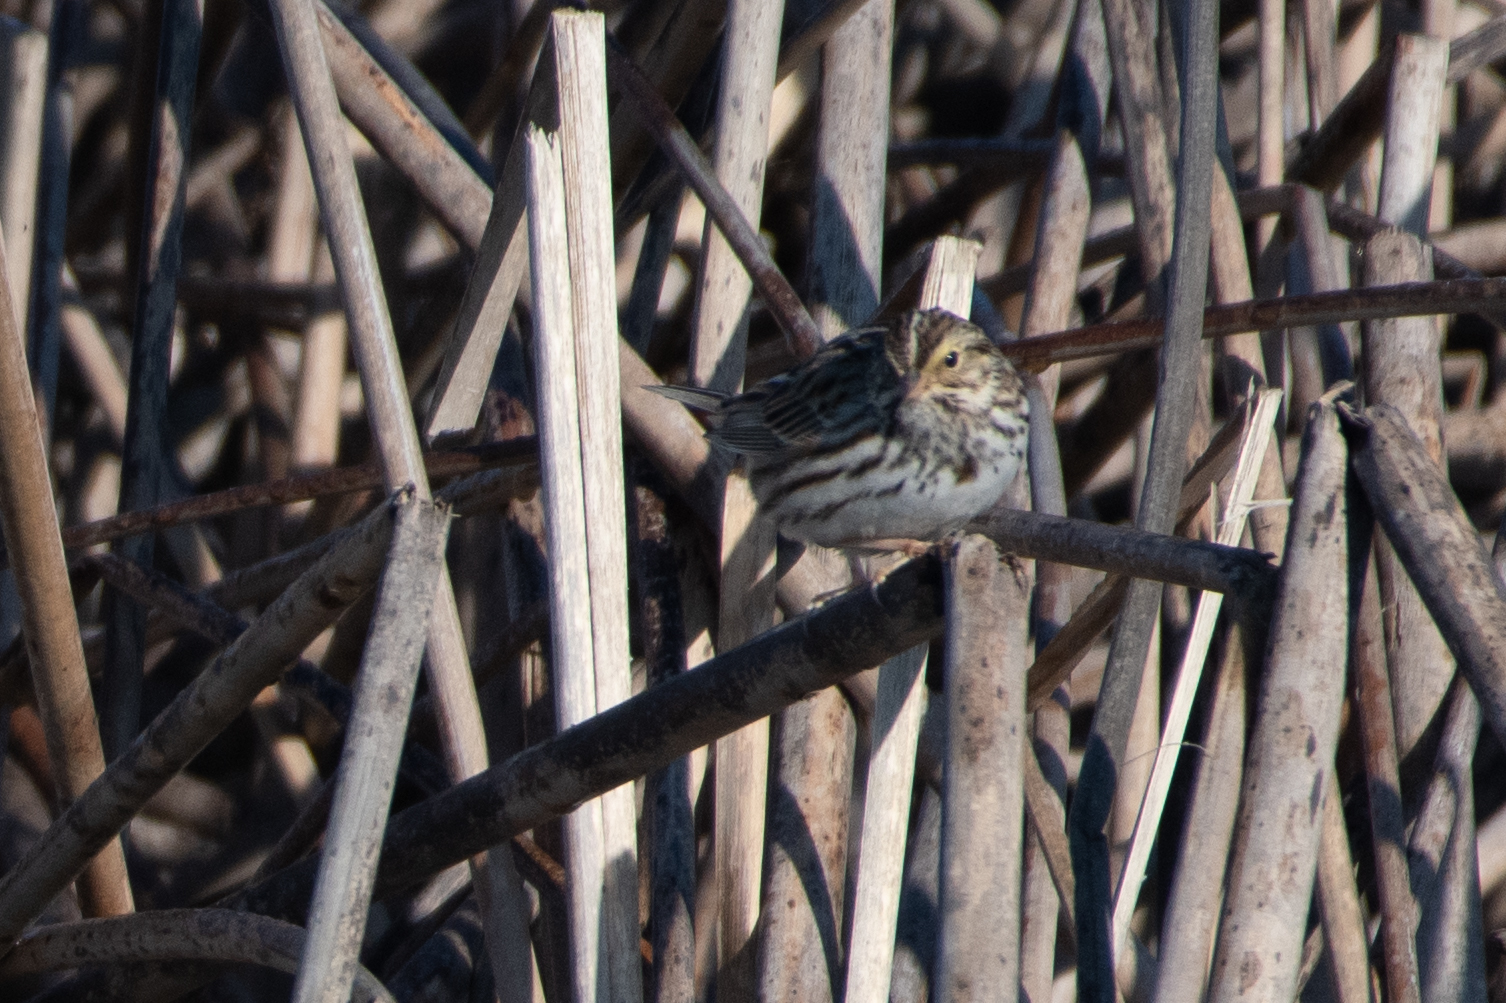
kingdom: Animalia
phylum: Chordata
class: Aves
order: Passeriformes
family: Passerellidae
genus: Passerculus
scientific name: Passerculus sandwichensis
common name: Savannah sparrow
